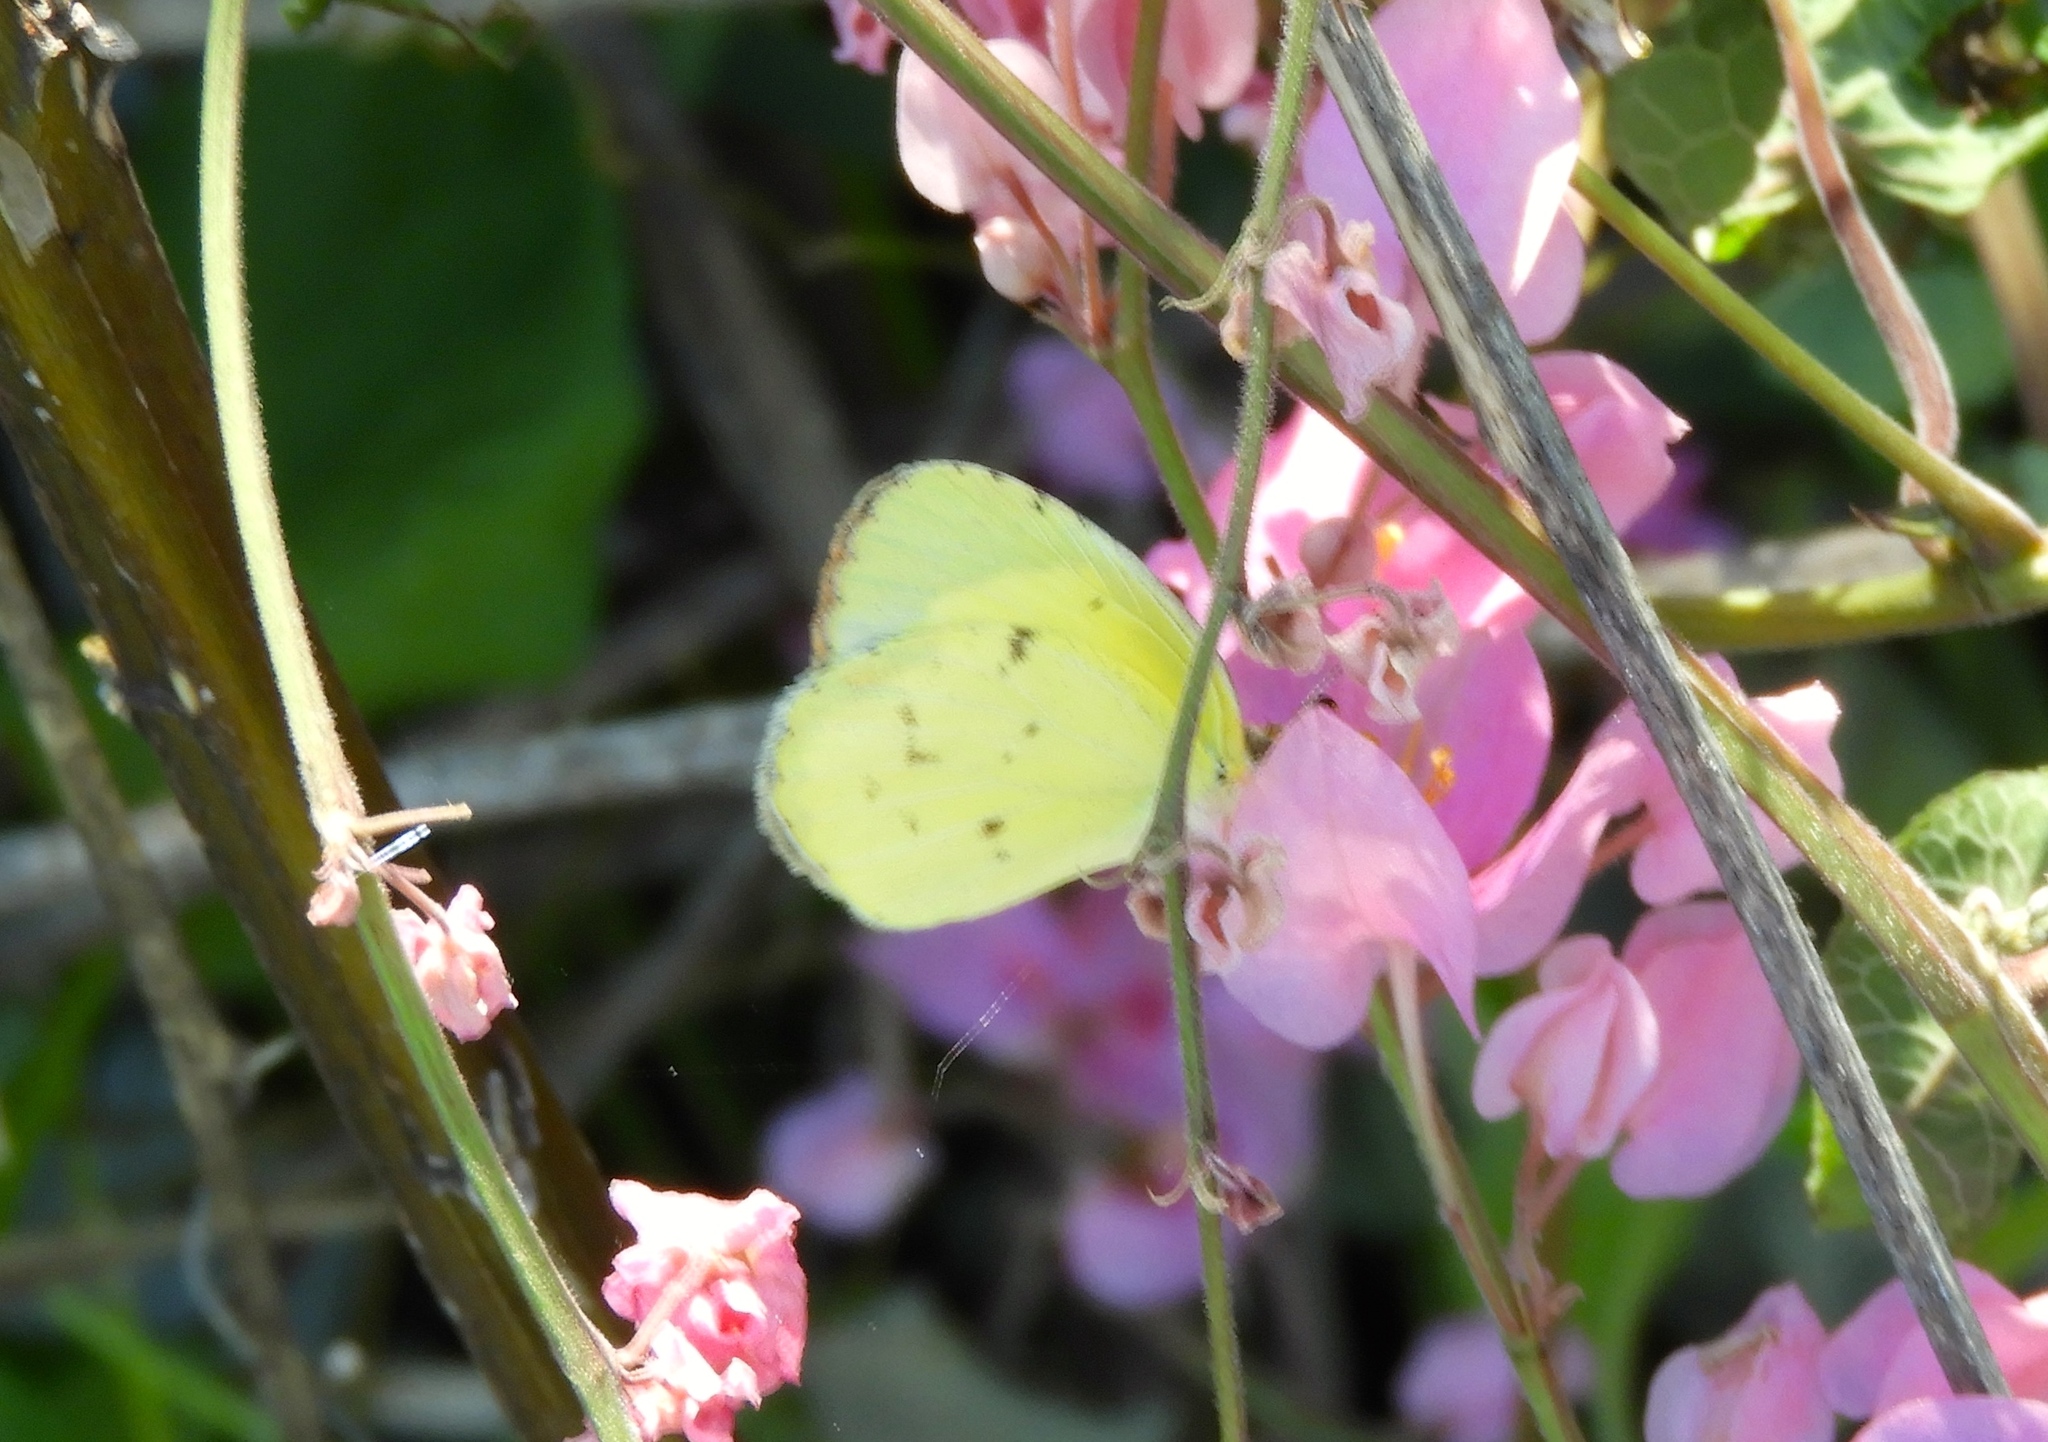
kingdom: Animalia
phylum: Arthropoda
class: Insecta
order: Lepidoptera
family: Pieridae
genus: Pyrisitia
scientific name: Pyrisitia lisa
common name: Little yellow
